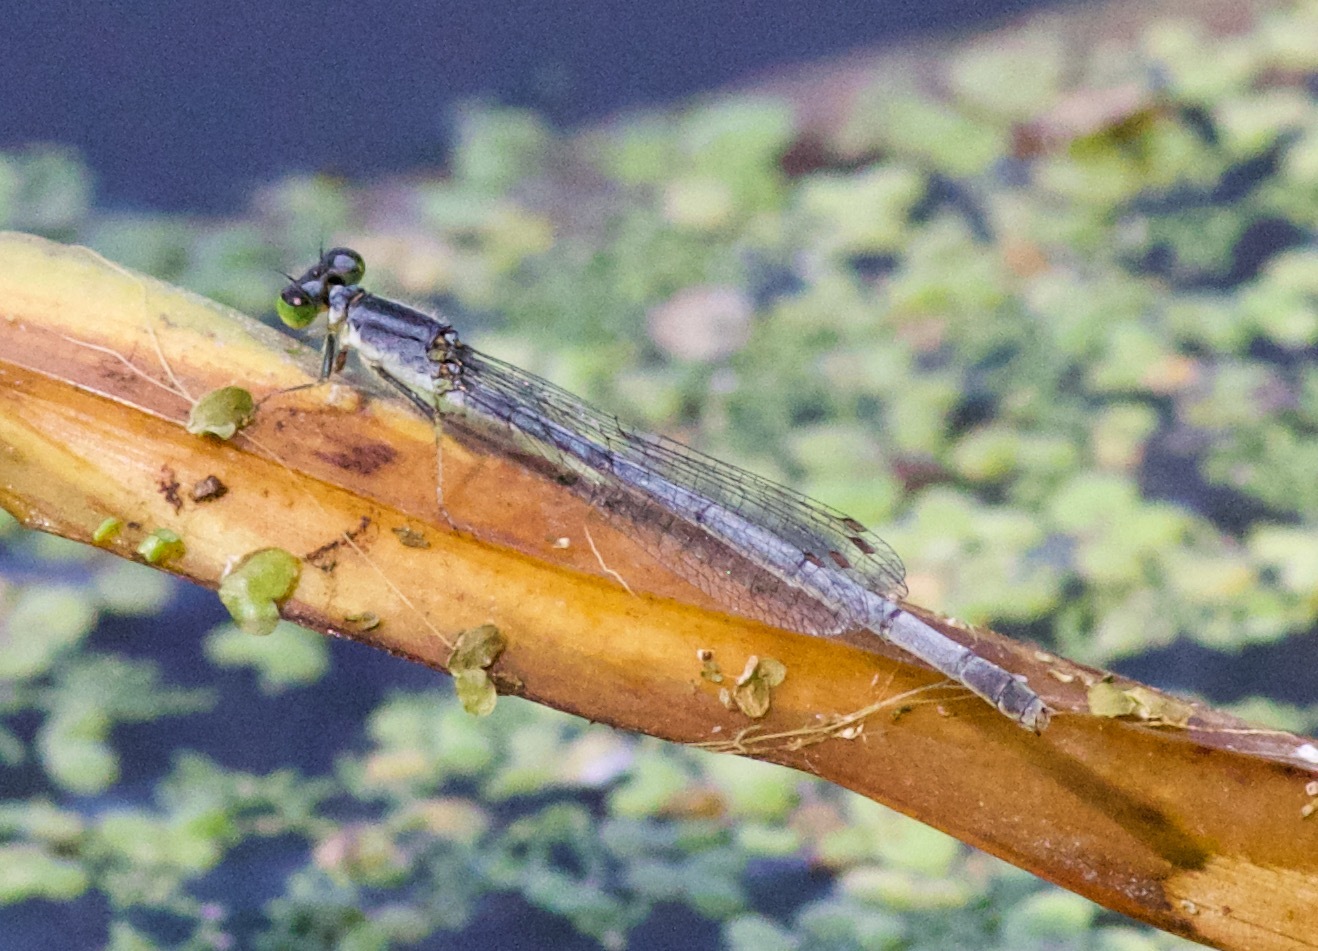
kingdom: Animalia
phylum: Arthropoda
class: Insecta
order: Odonata
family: Coenagrionidae
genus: Ischnura
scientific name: Ischnura verticalis
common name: Eastern forktail
